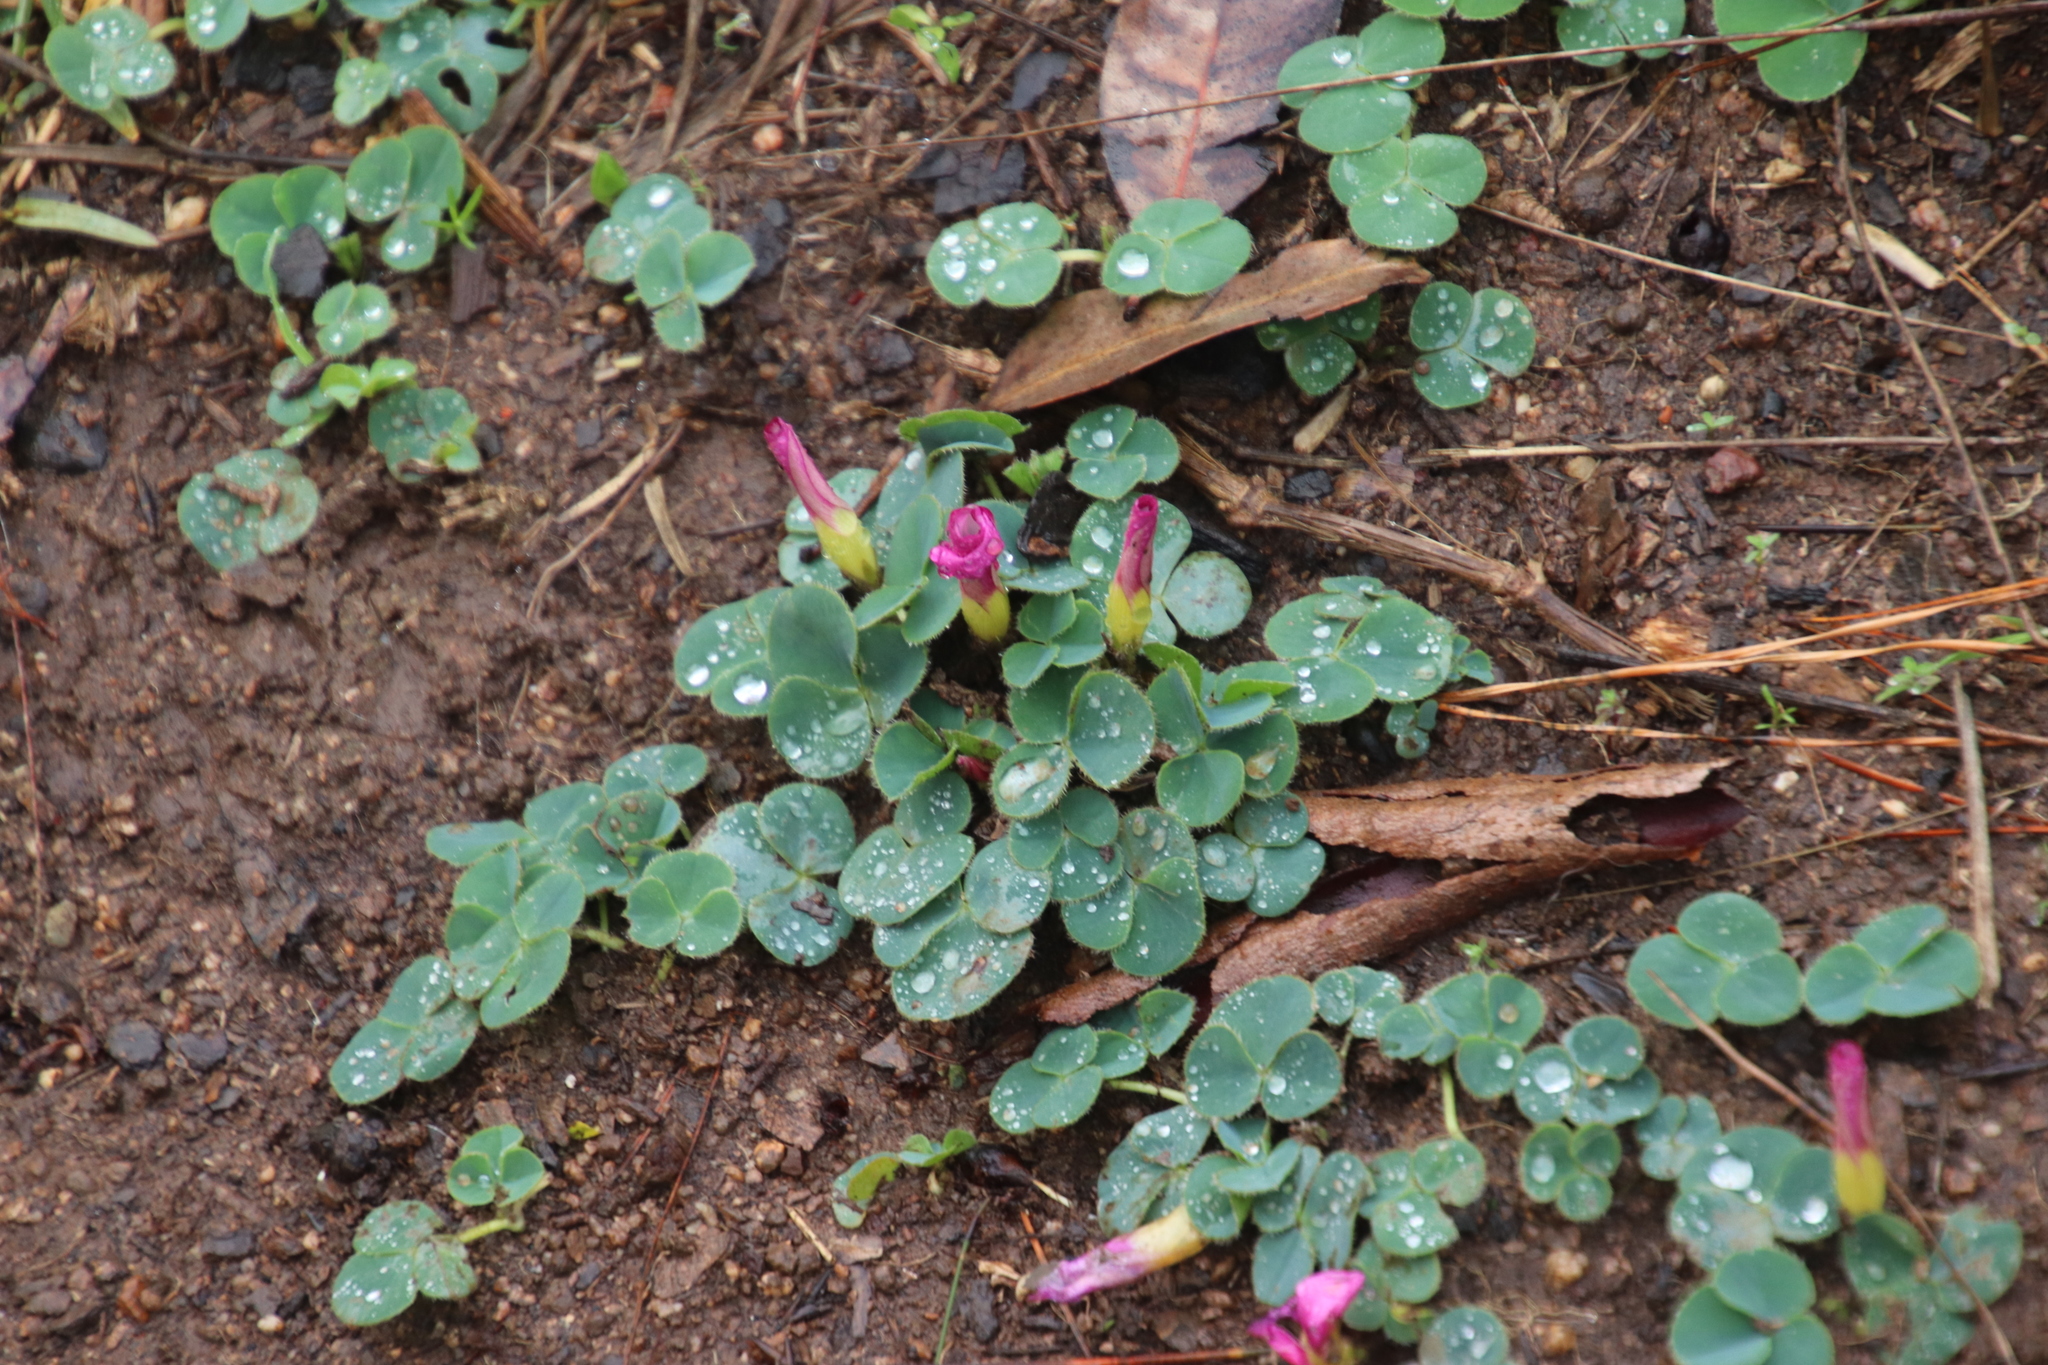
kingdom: Plantae
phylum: Tracheophyta
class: Magnoliopsida
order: Oxalidales
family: Oxalidaceae
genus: Oxalis
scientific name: Oxalis purpurea
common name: Purple woodsorrel
